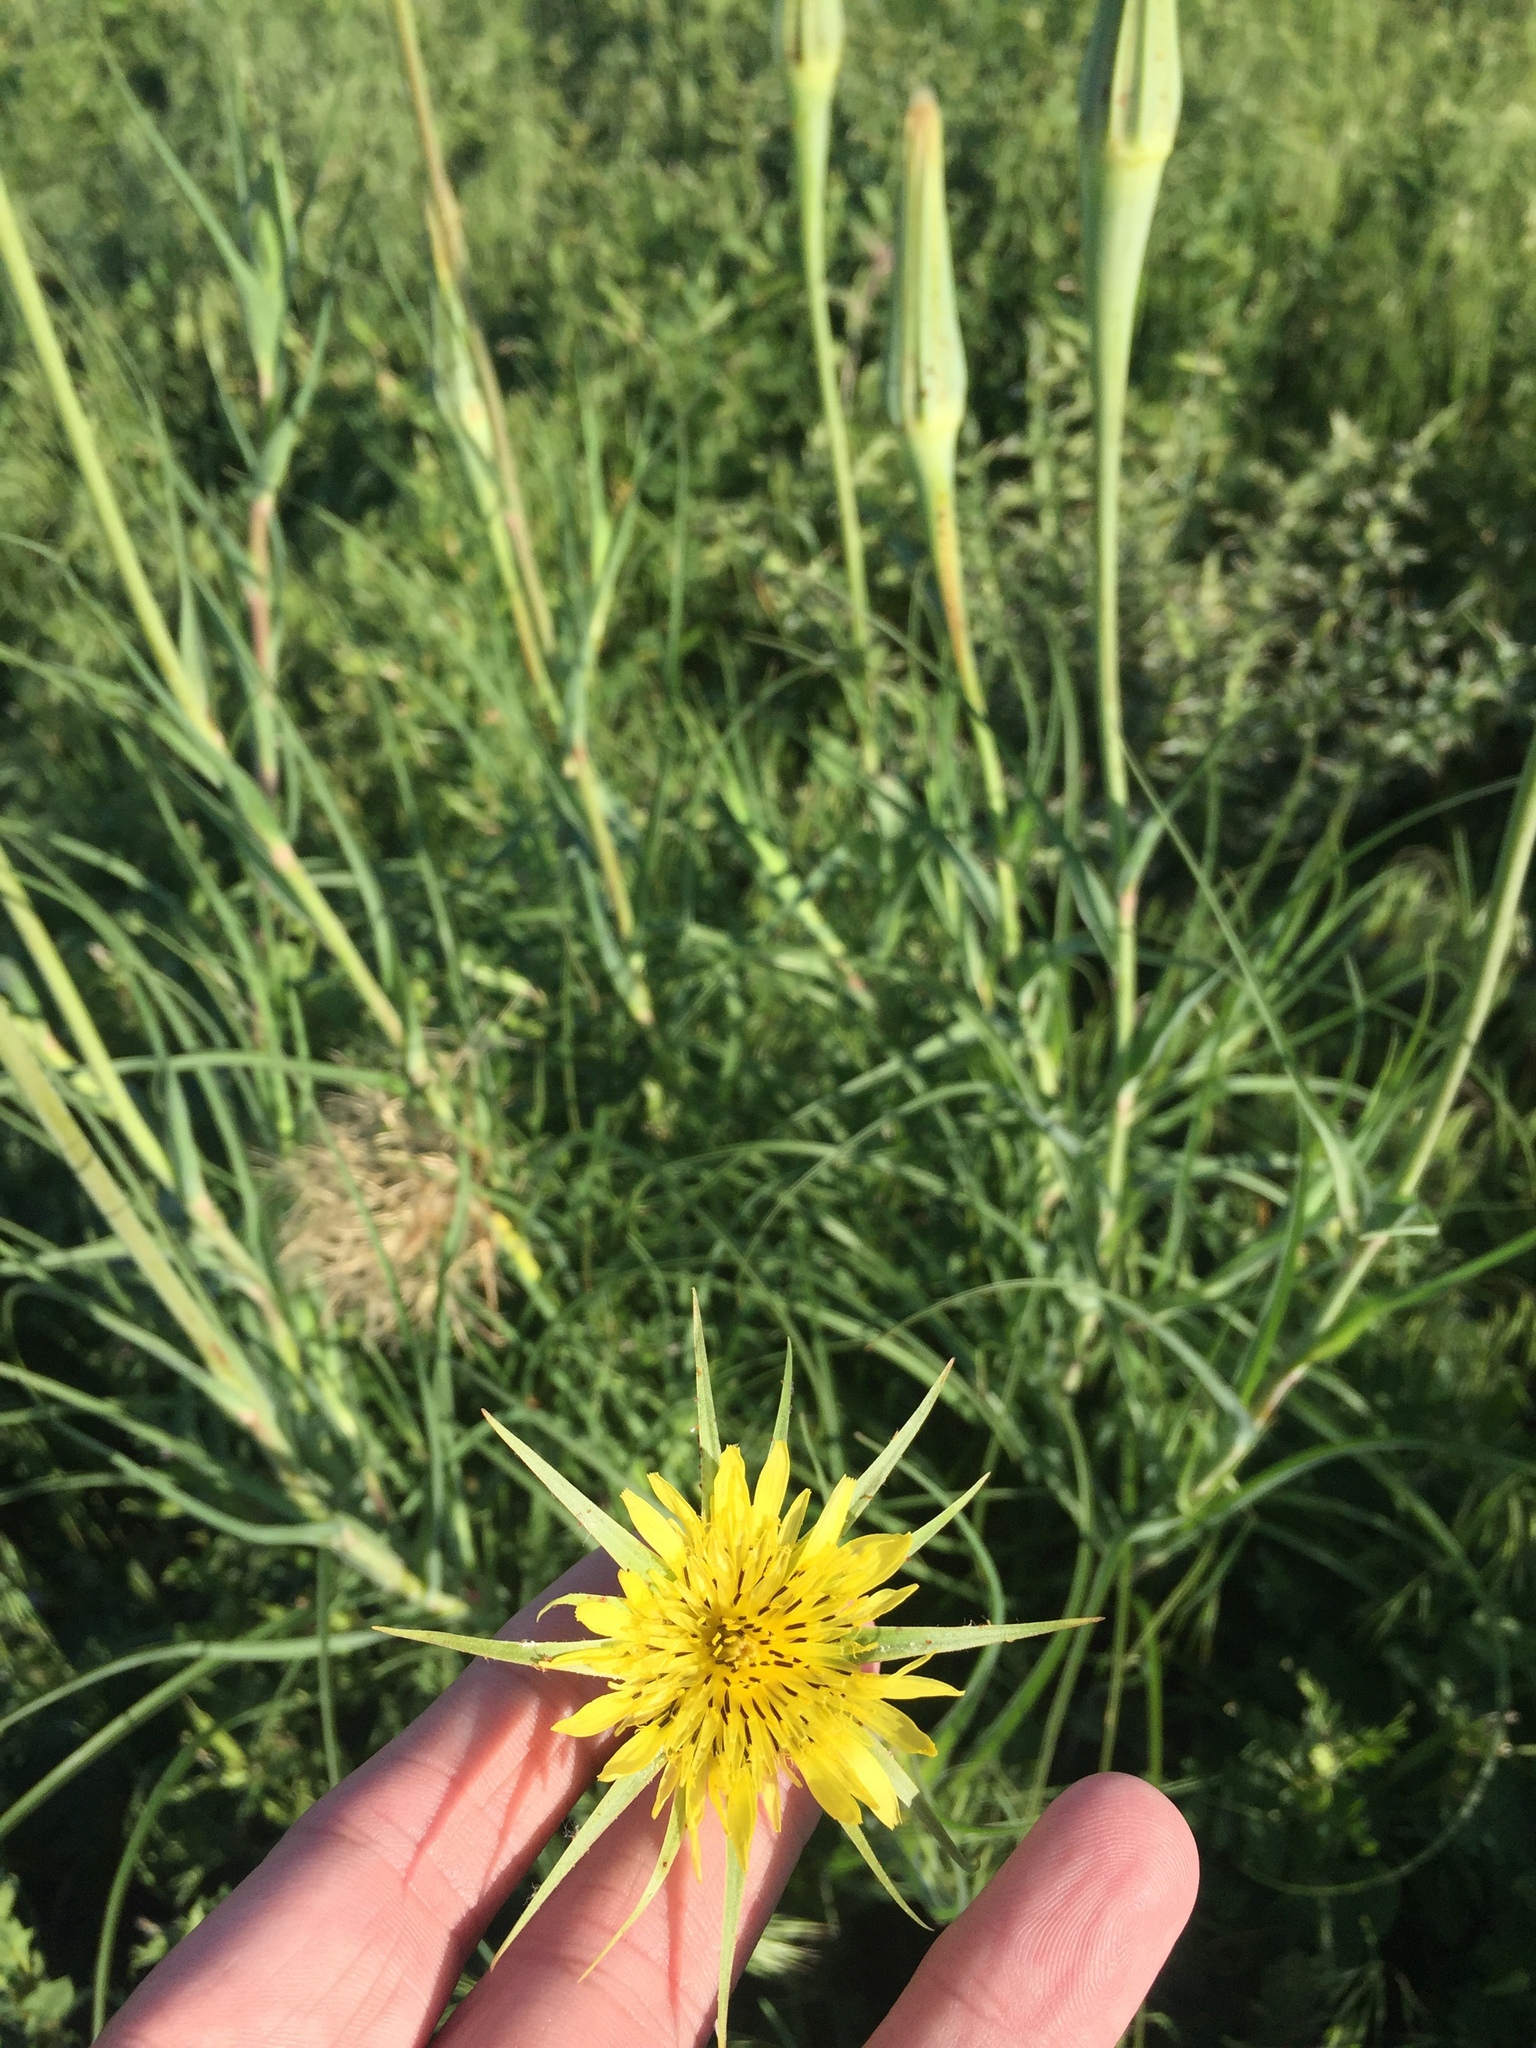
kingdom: Plantae
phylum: Tracheophyta
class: Magnoliopsida
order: Asterales
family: Asteraceae
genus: Tragopogon
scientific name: Tragopogon dubius
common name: Yellow salsify
